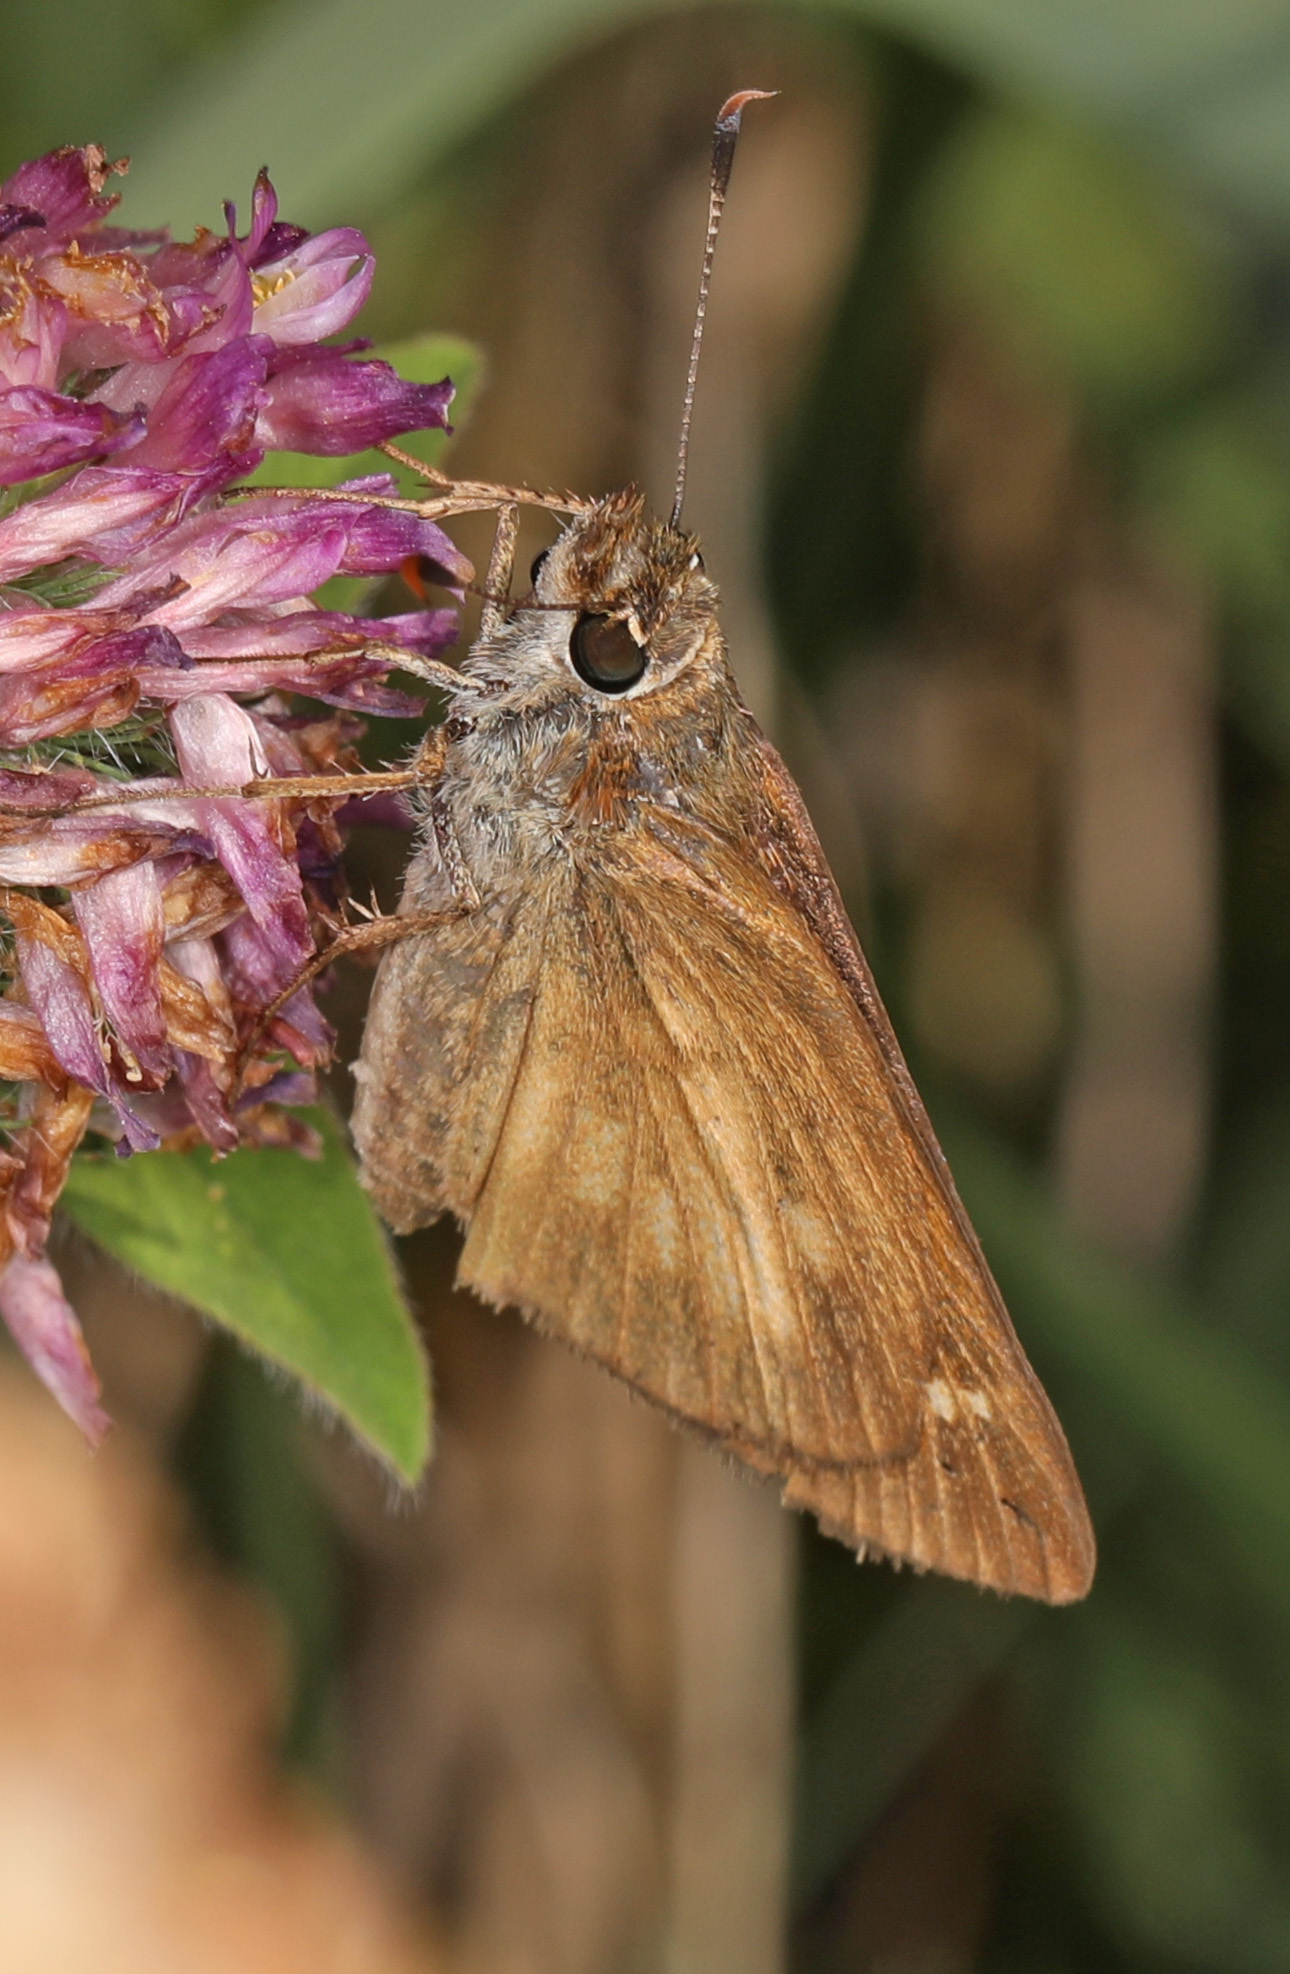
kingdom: Animalia
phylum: Arthropoda
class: Insecta
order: Lepidoptera
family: Hesperiidae
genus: Poanes
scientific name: Poanes viator
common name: Broad-winged skipper
